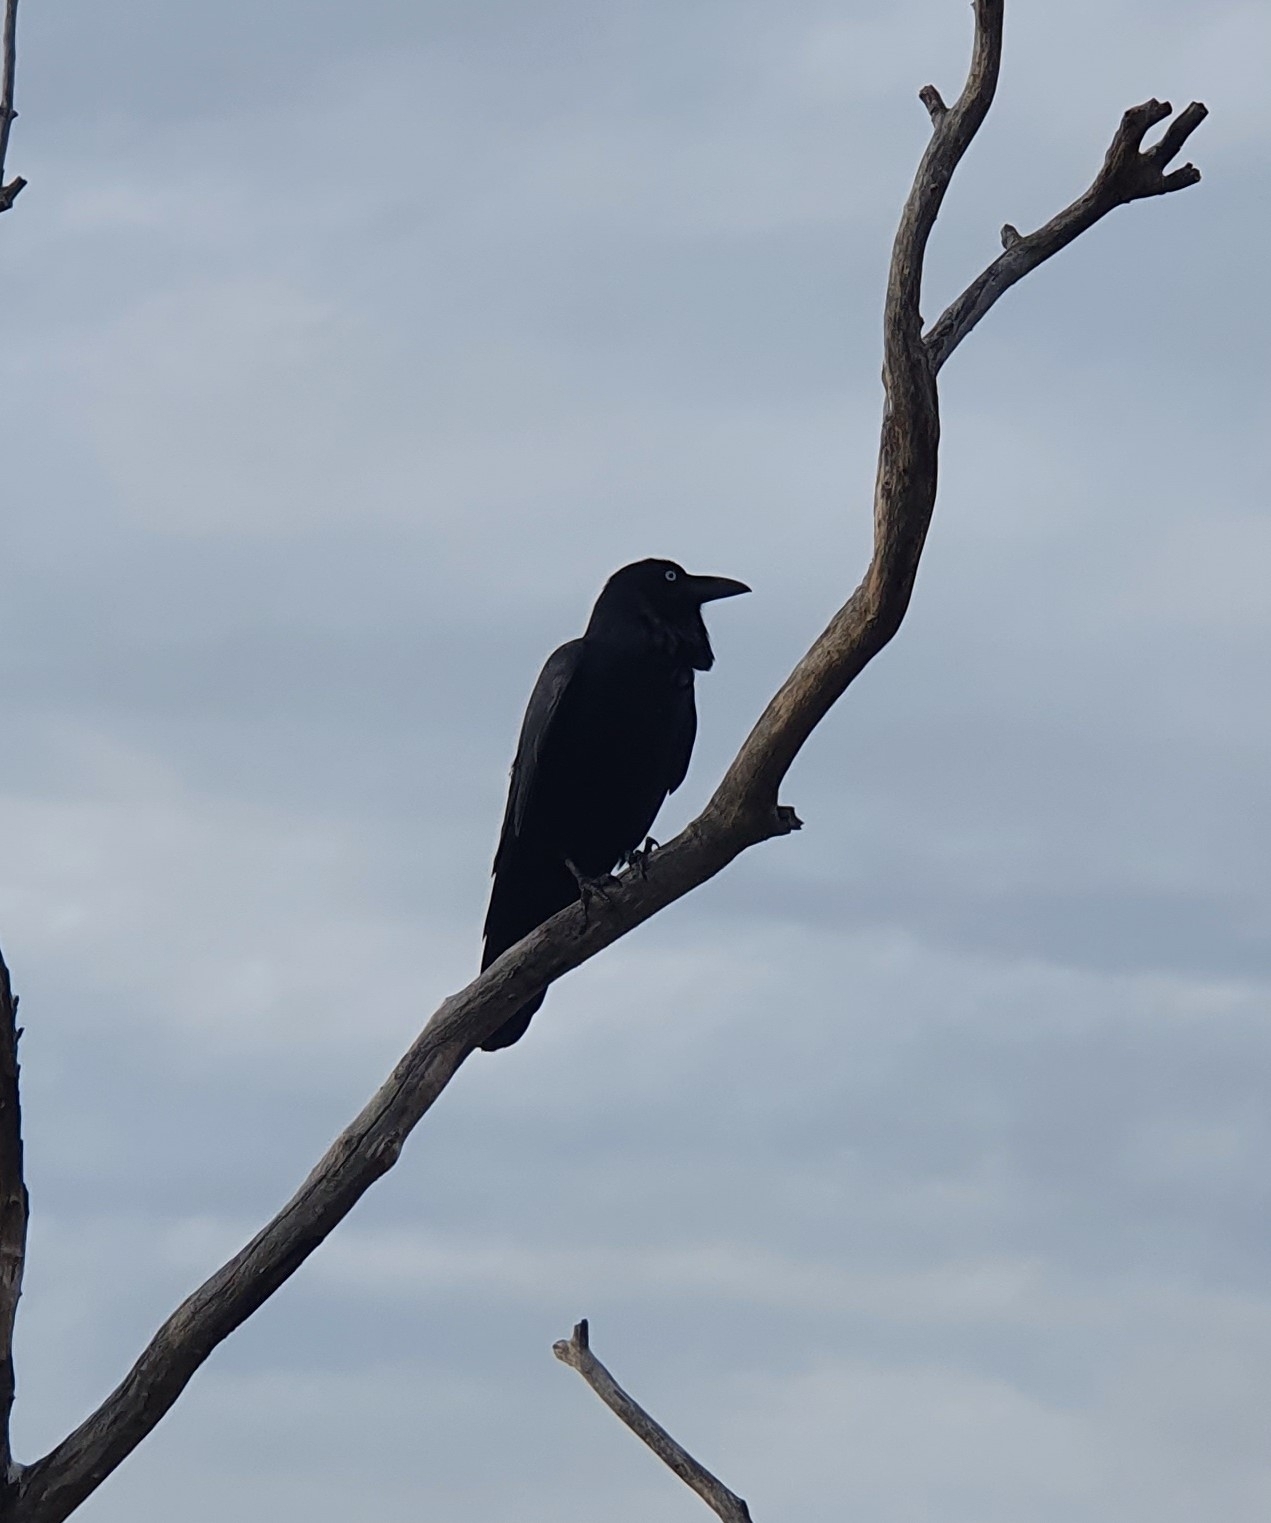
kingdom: Animalia
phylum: Chordata
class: Aves
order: Passeriformes
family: Corvidae
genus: Corvus
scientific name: Corvus coronoides
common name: Australian raven
